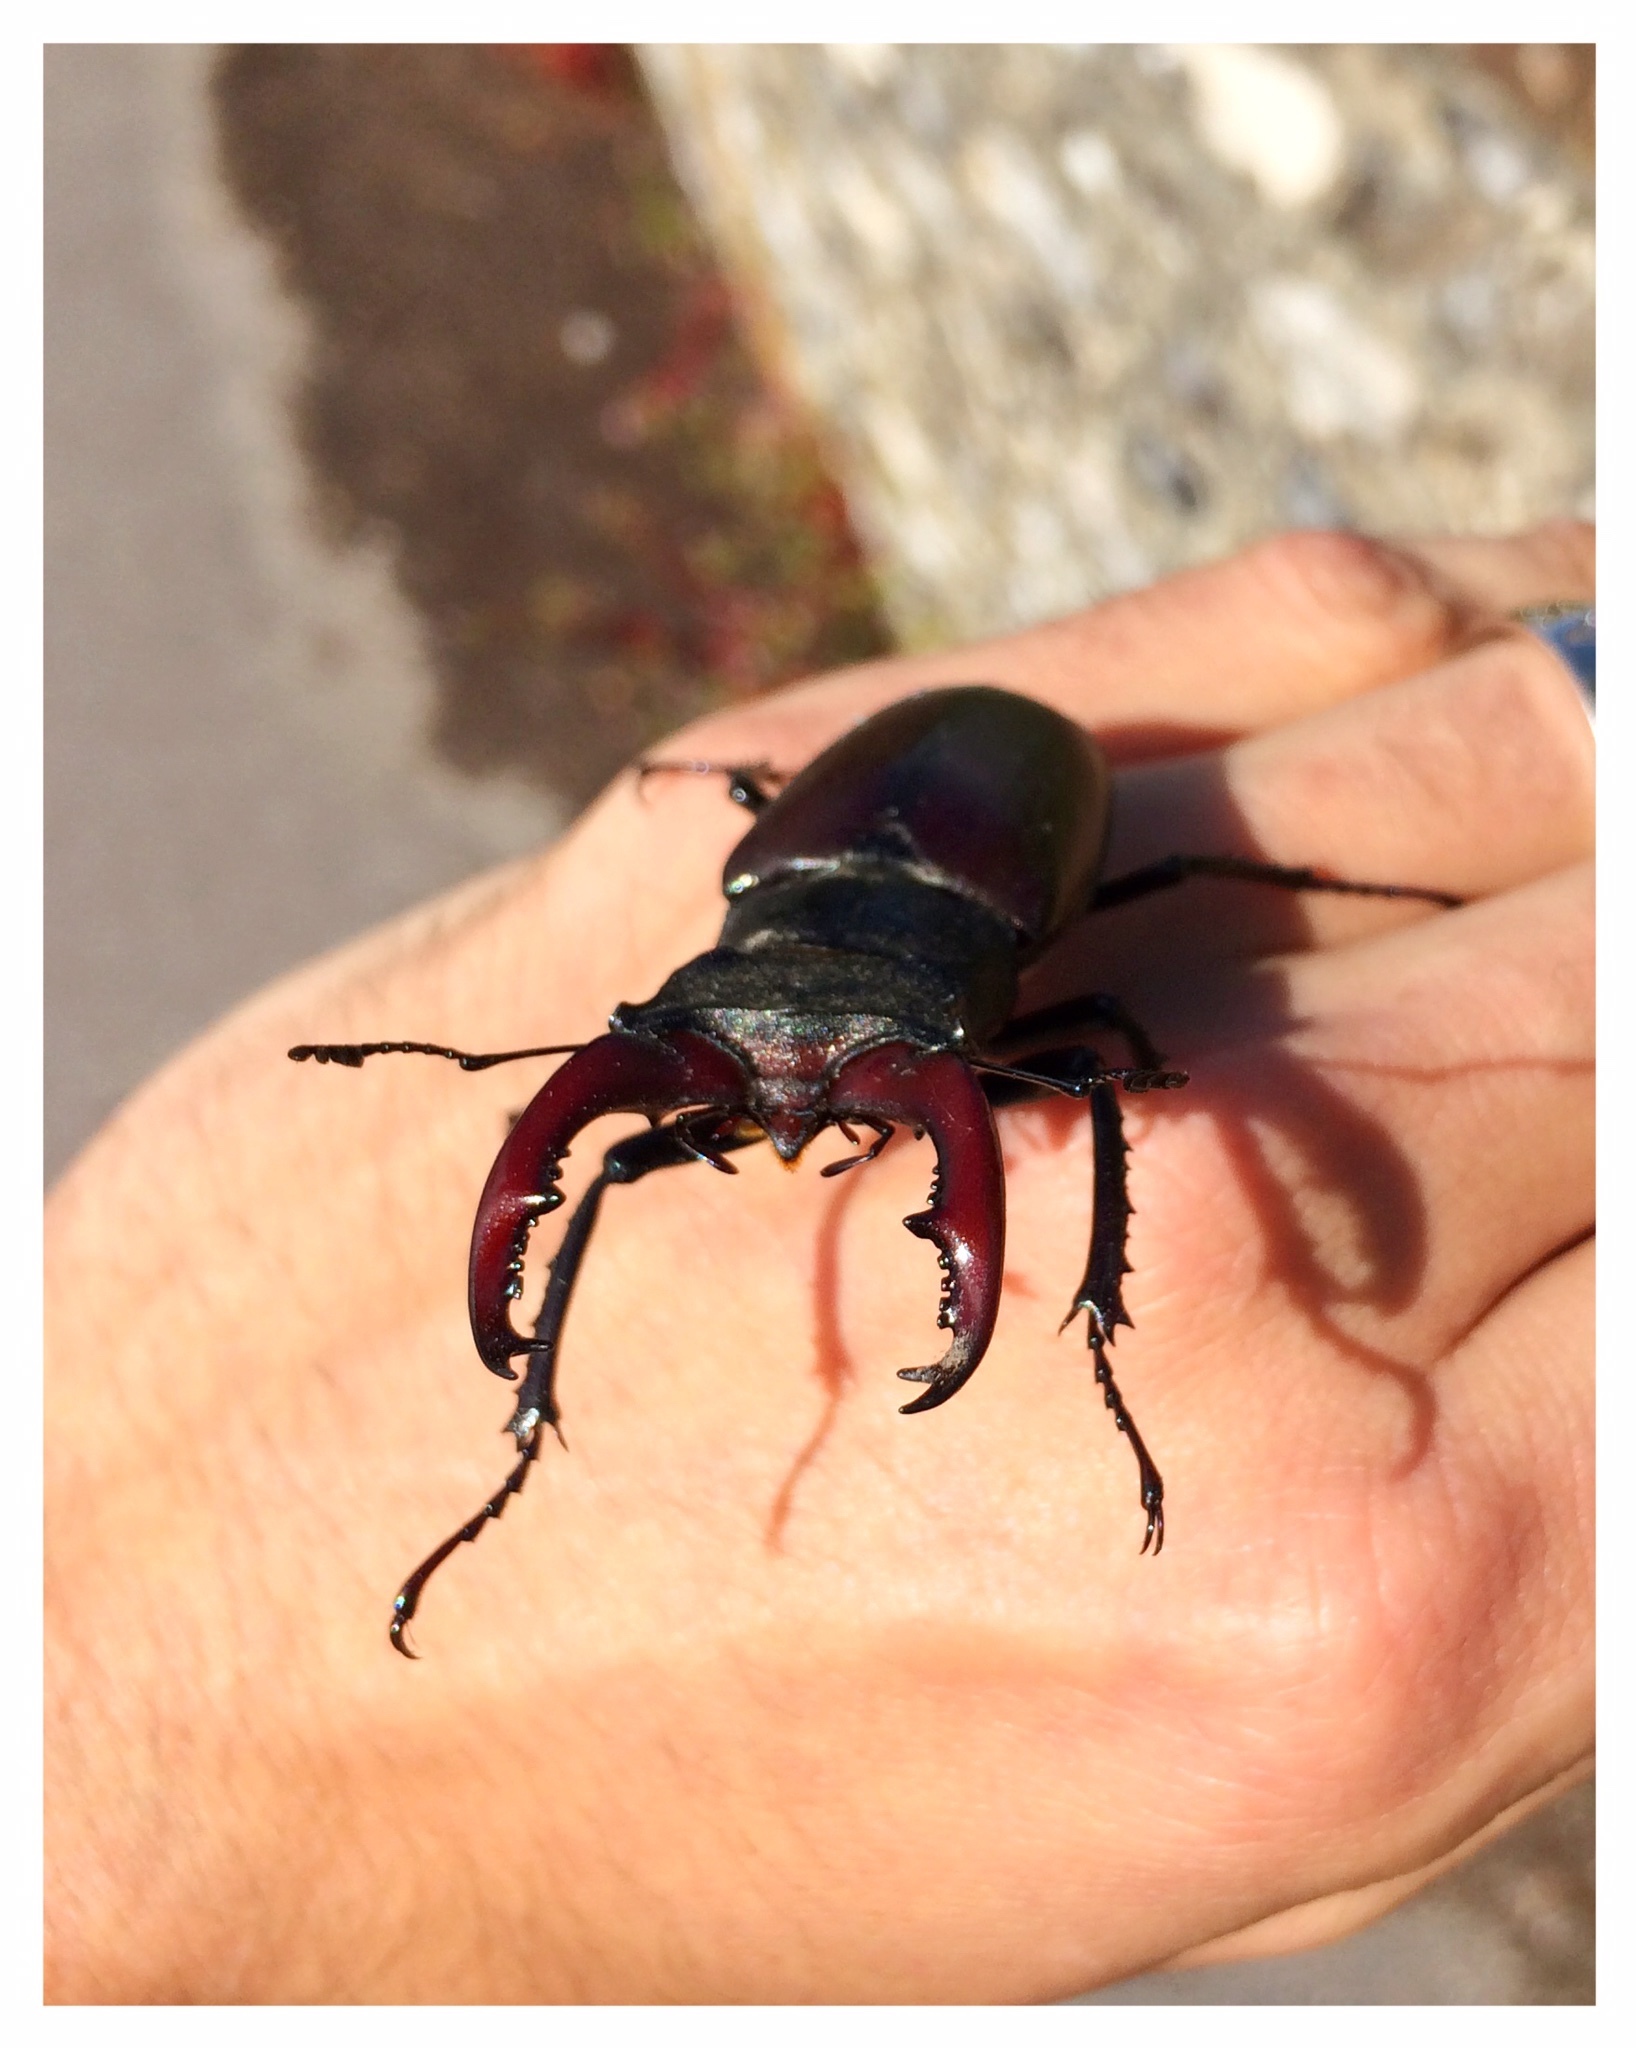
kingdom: Animalia
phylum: Arthropoda
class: Insecta
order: Coleoptera
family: Lucanidae
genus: Lucanus
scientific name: Lucanus cervus
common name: Stag beetle
